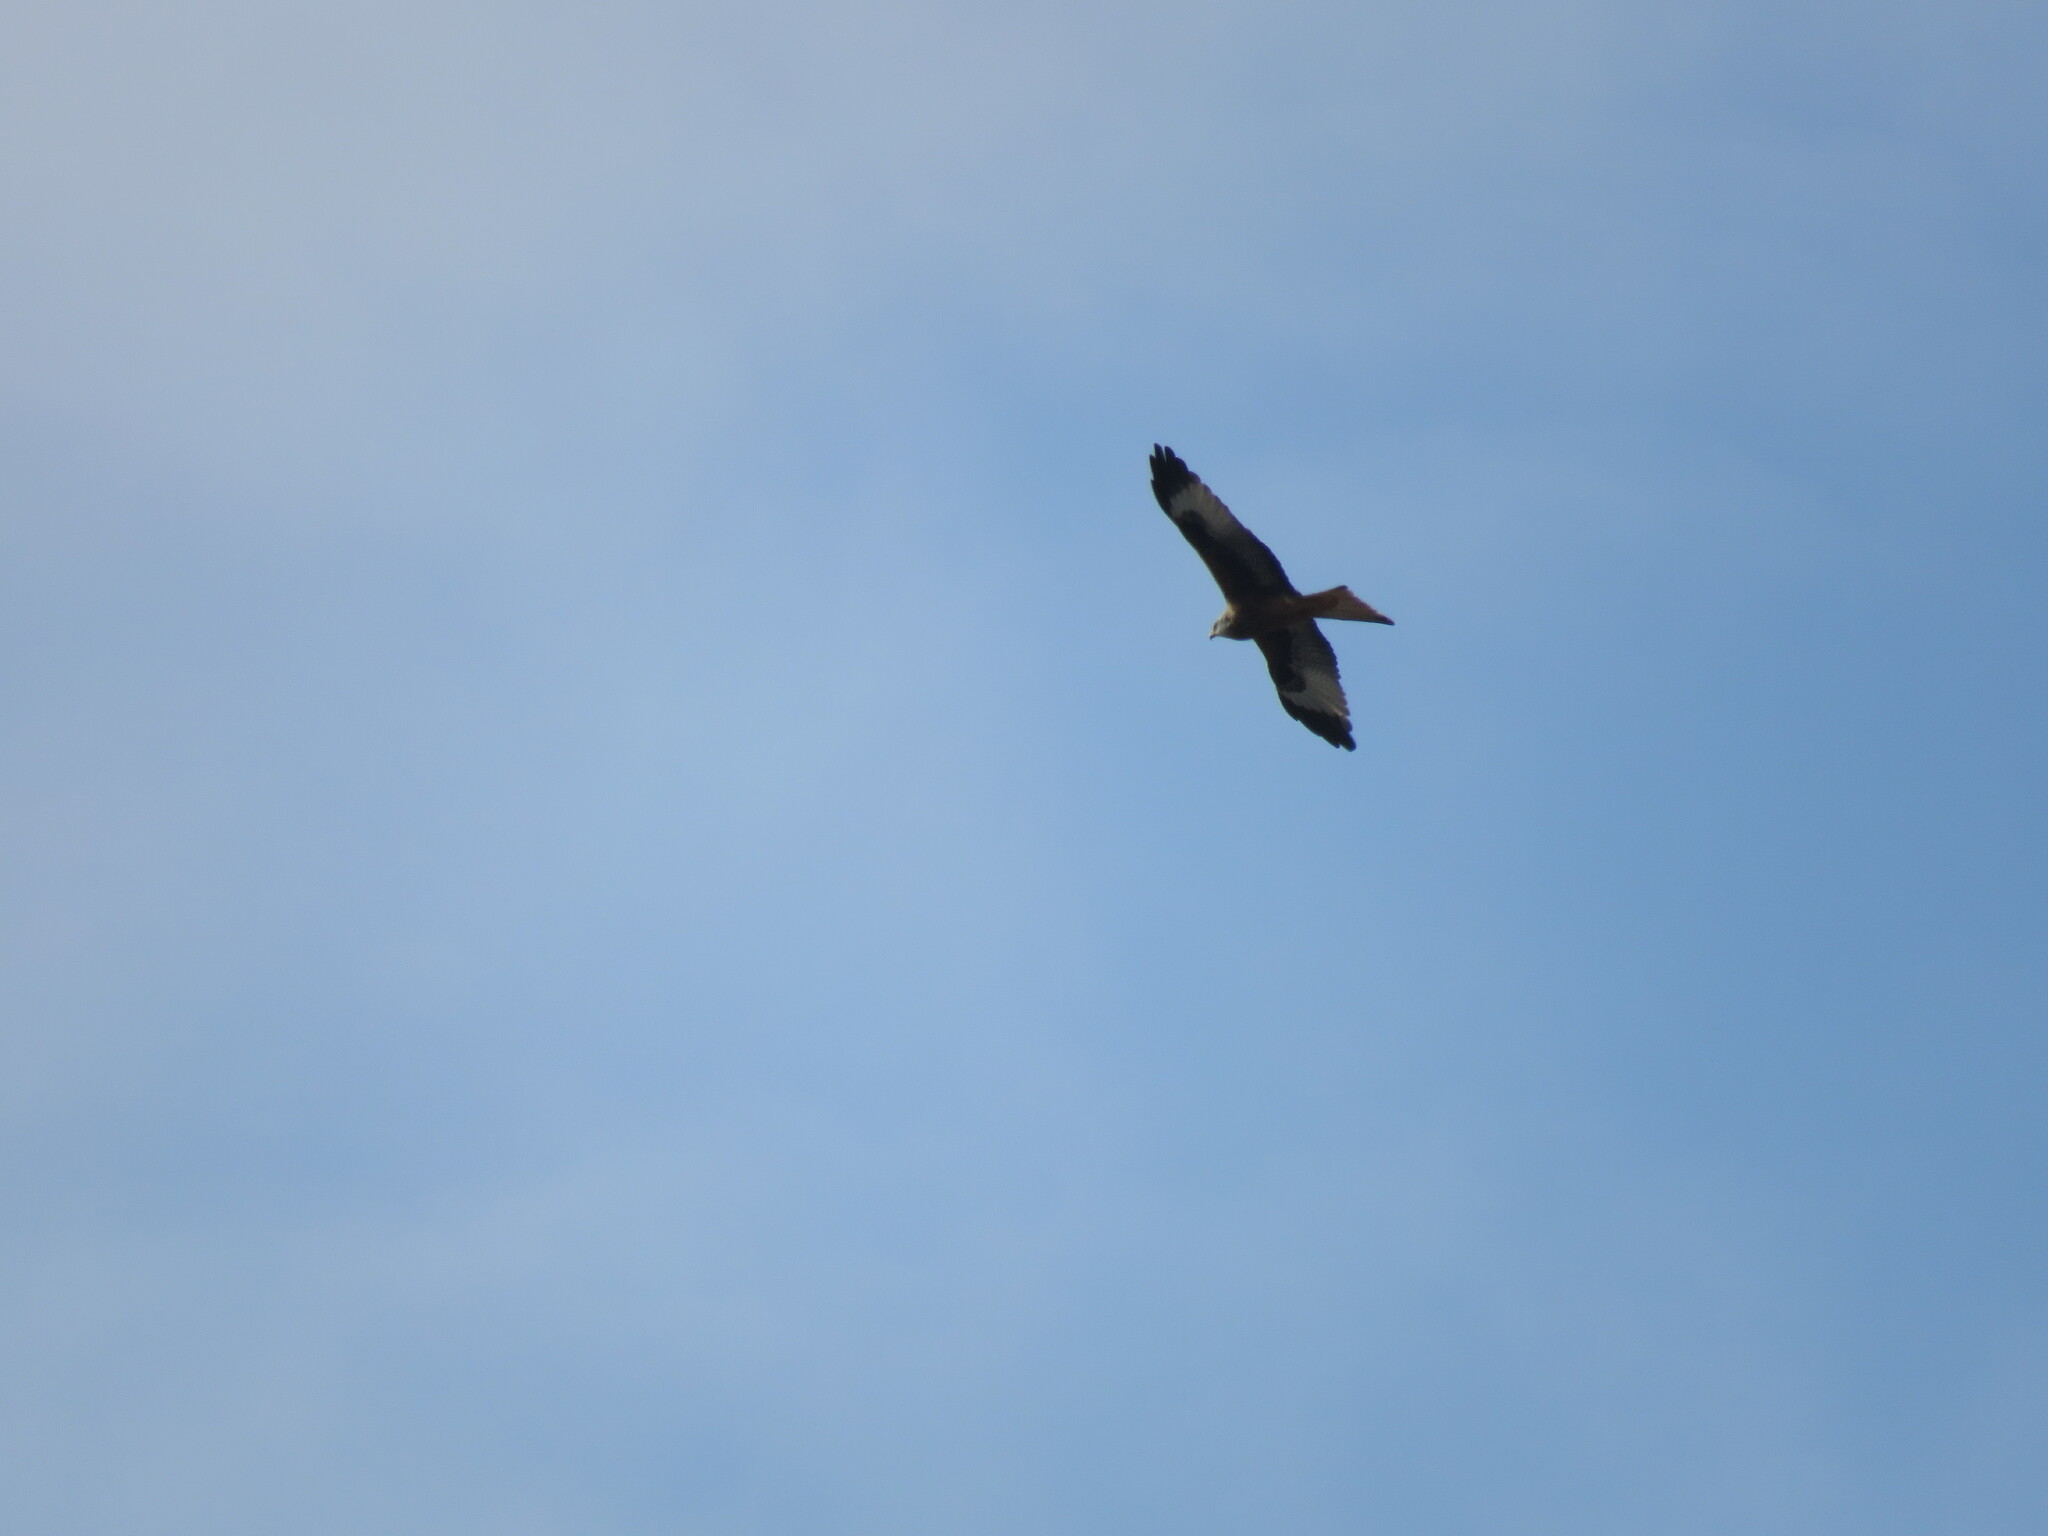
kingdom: Animalia
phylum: Chordata
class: Aves
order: Accipitriformes
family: Accipitridae
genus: Milvus
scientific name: Milvus milvus
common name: Red kite
